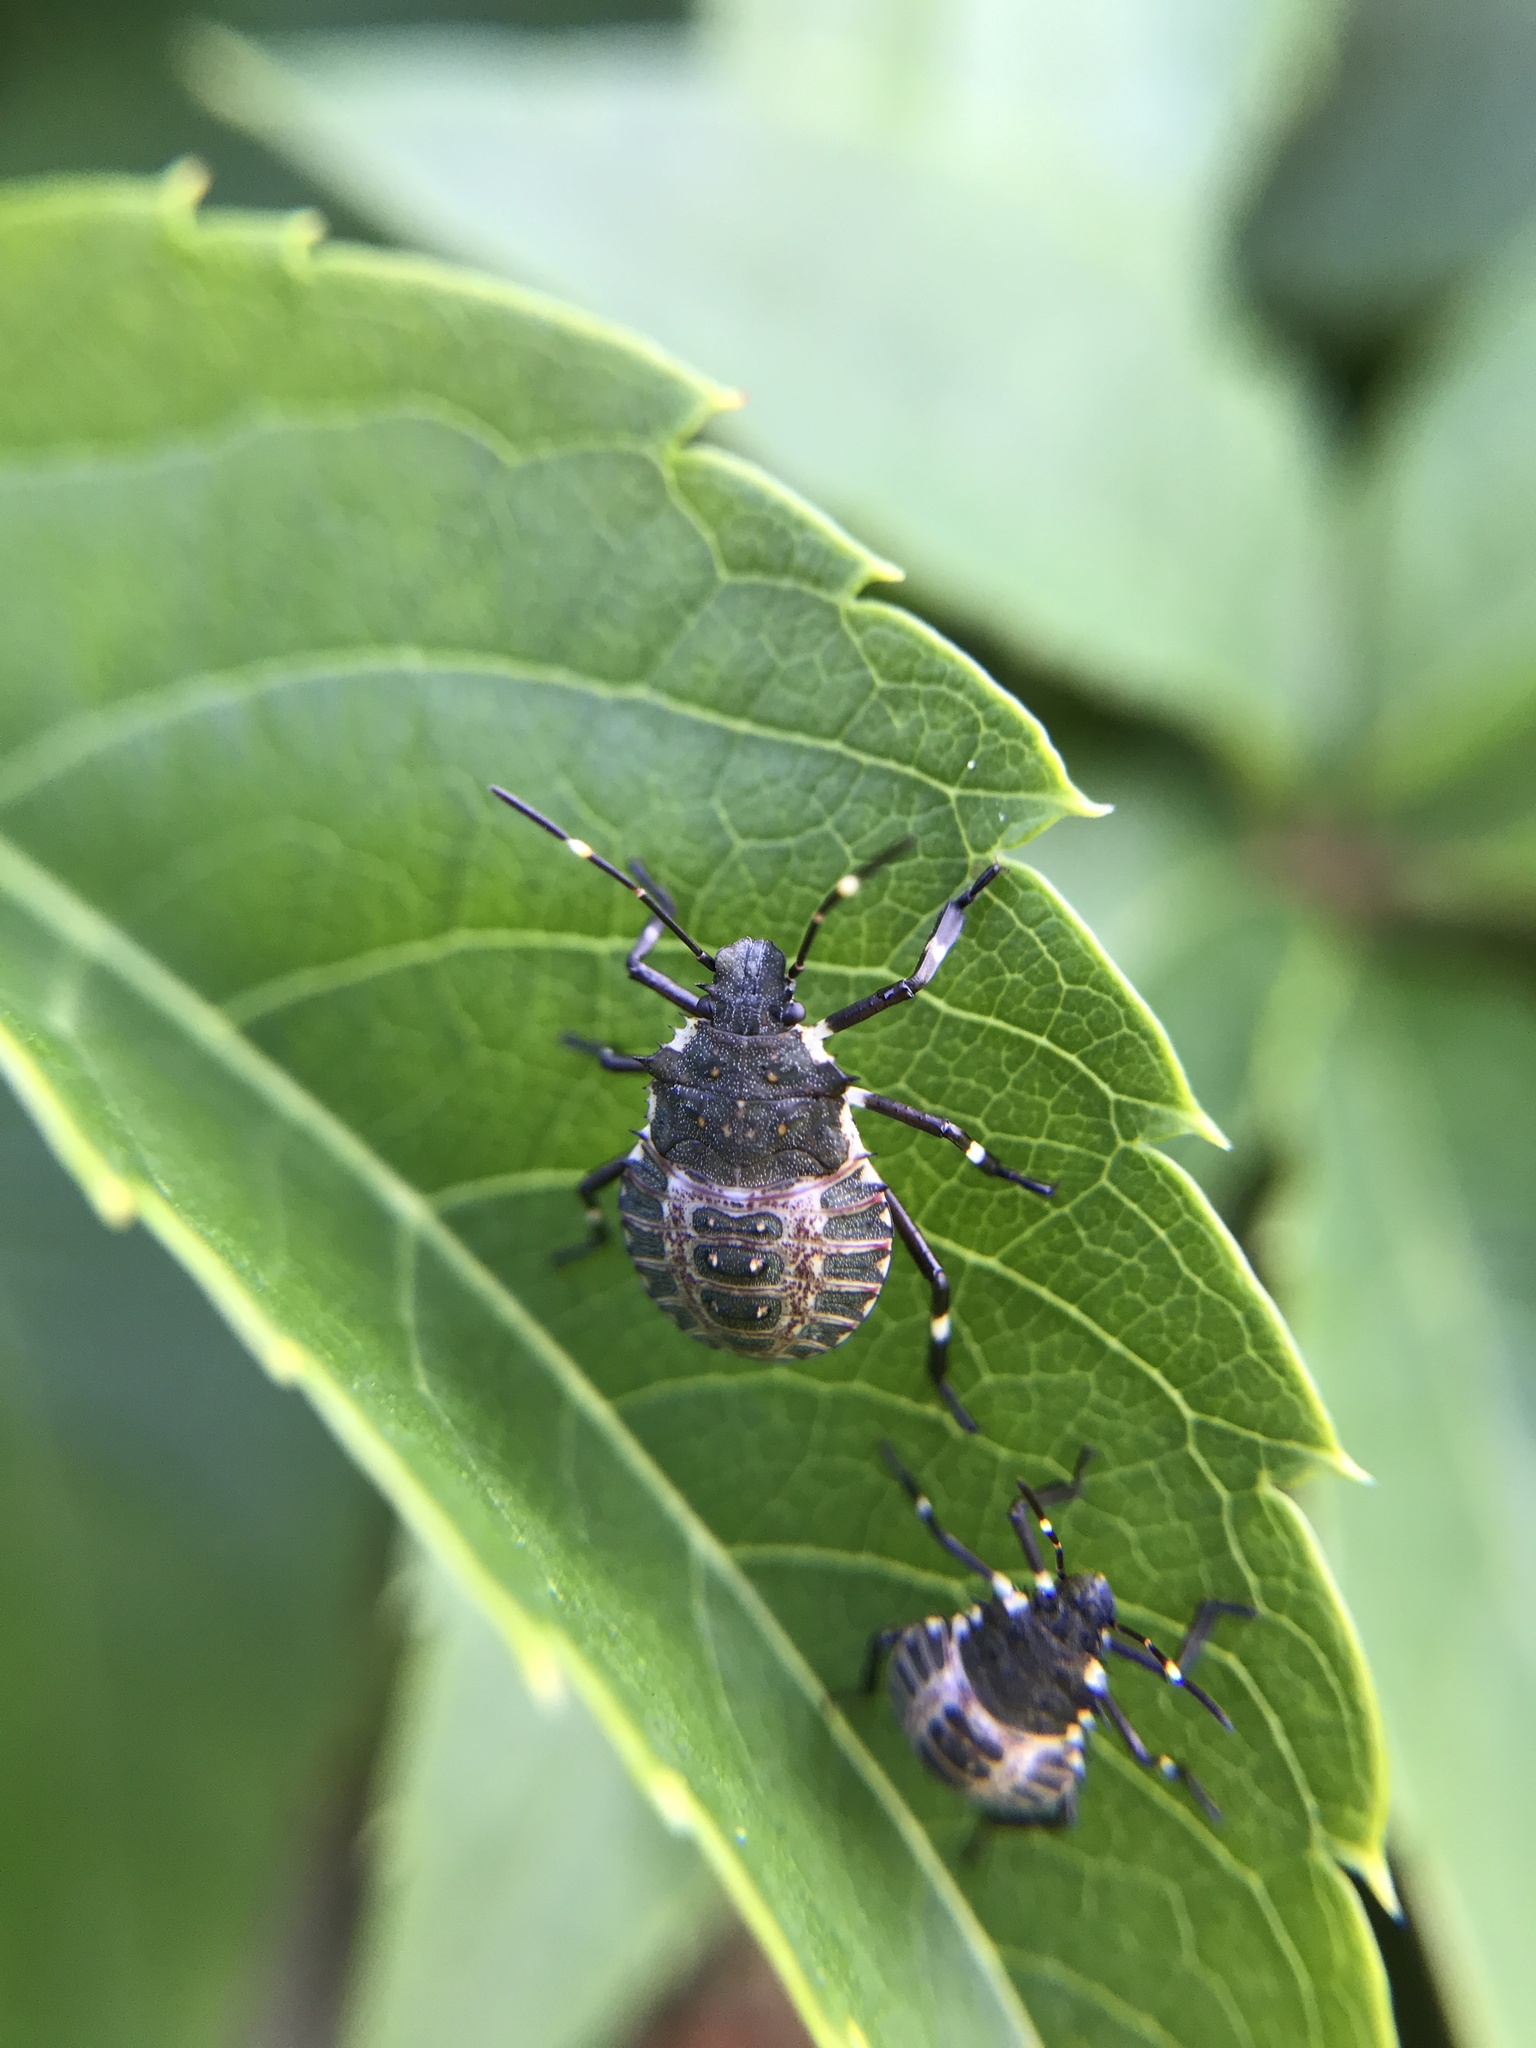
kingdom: Animalia
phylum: Arthropoda
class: Insecta
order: Hemiptera
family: Pentatomidae
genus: Halyomorpha
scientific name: Halyomorpha halys
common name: Brown marmorated stink bug
